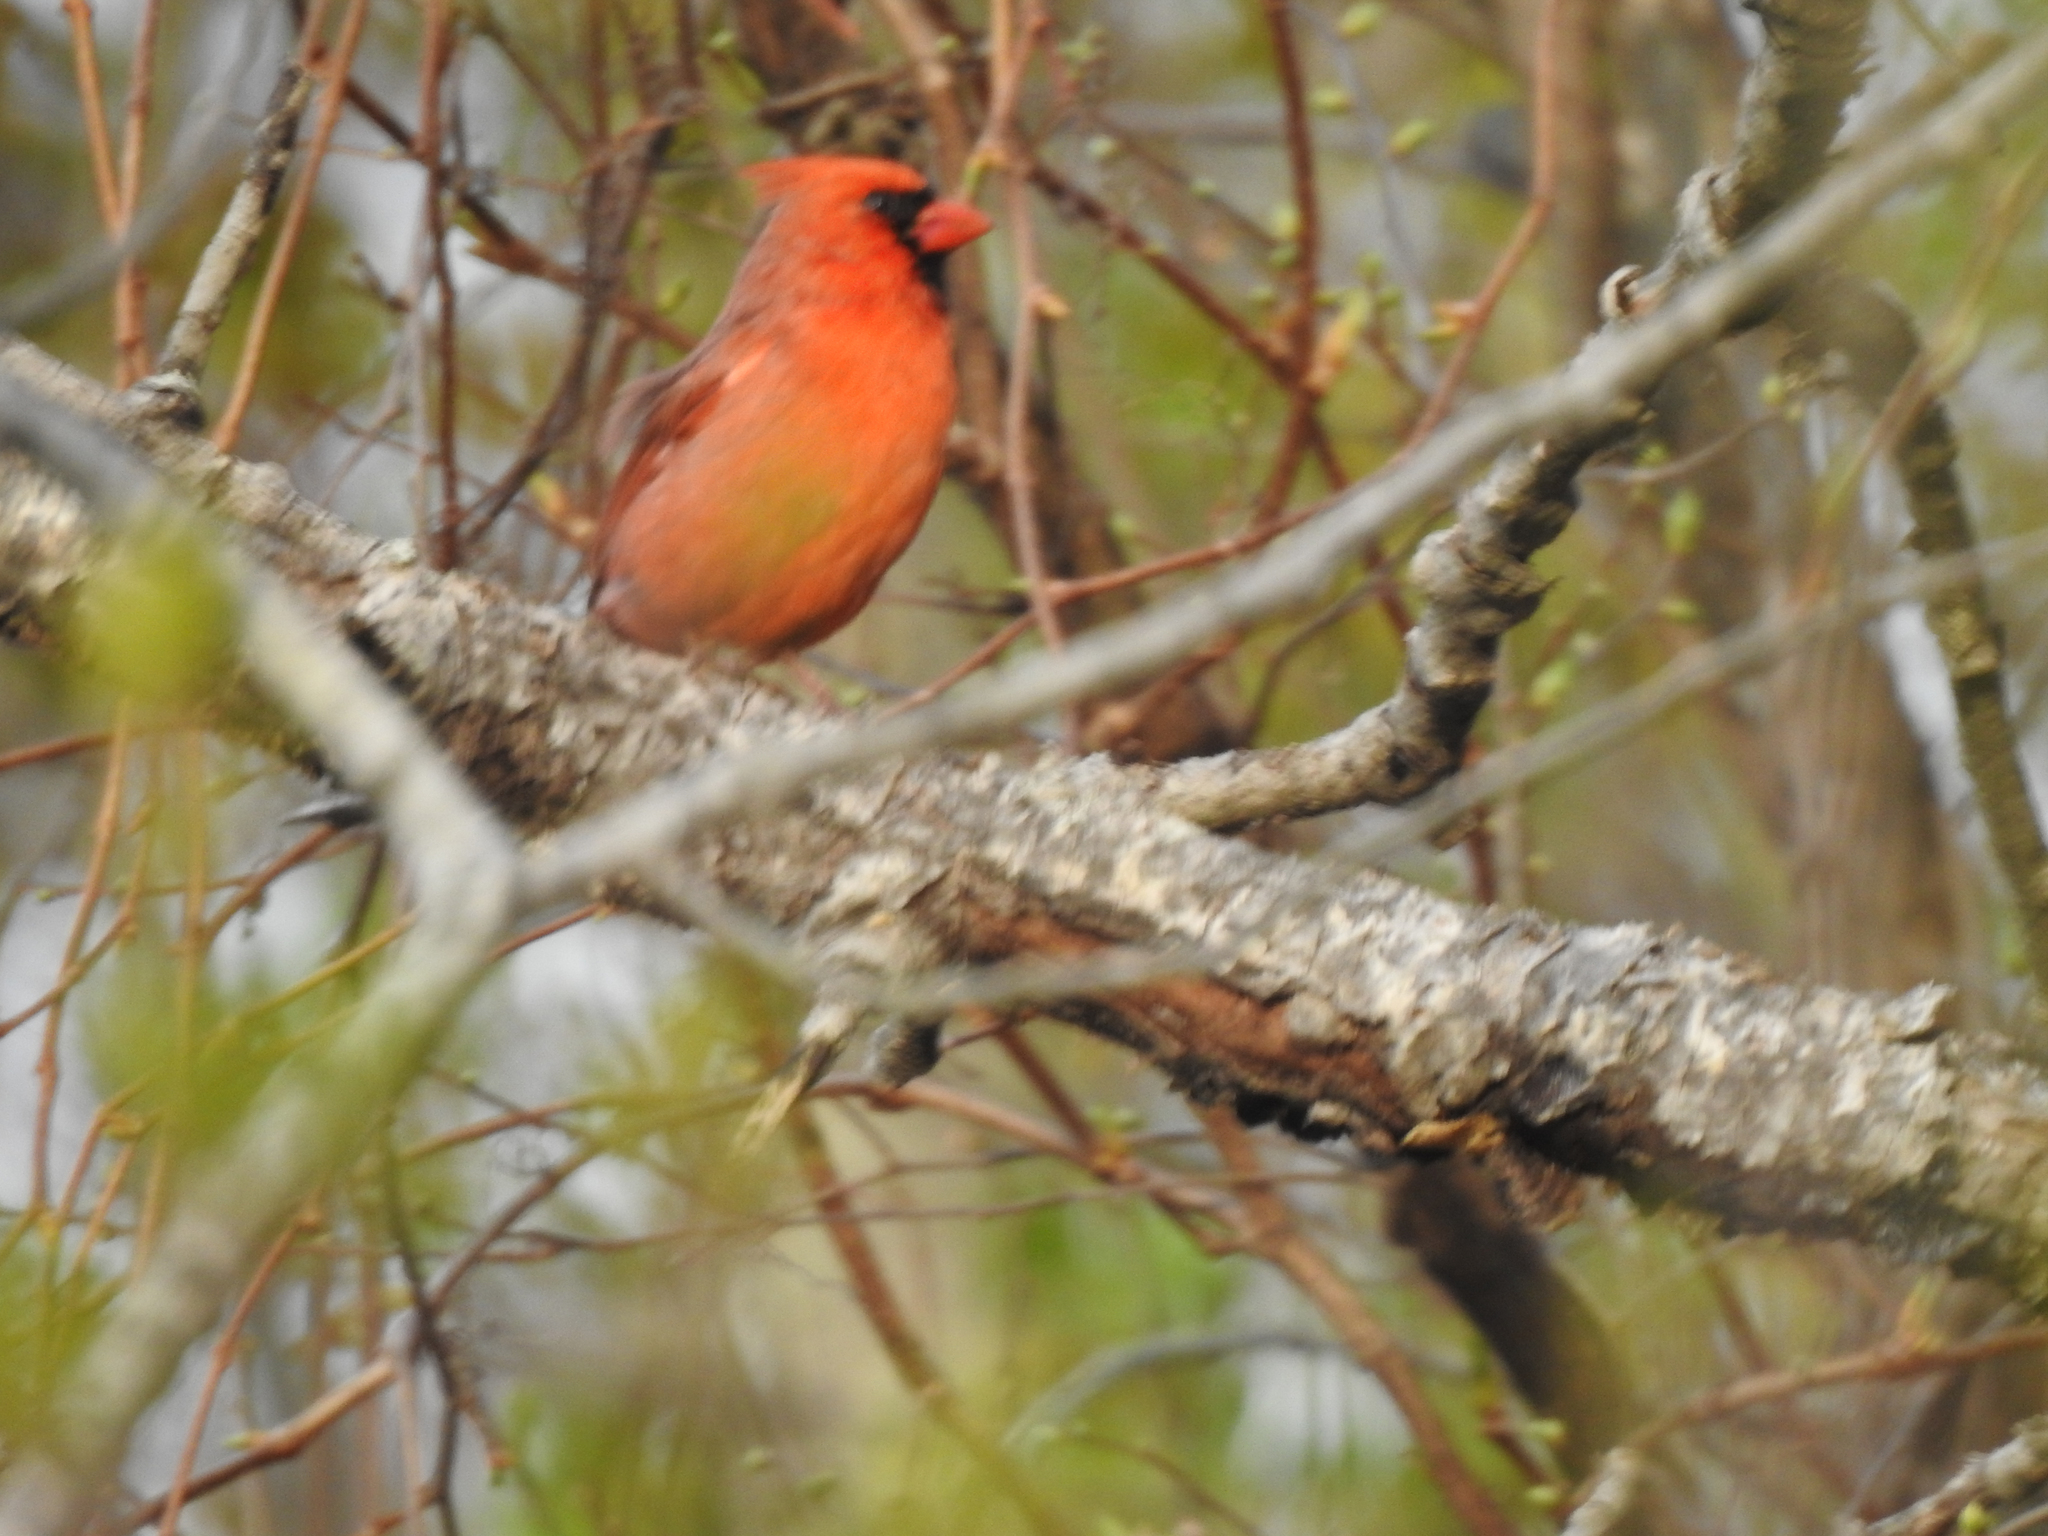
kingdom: Animalia
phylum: Chordata
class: Aves
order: Passeriformes
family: Cardinalidae
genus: Cardinalis
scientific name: Cardinalis cardinalis
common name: Northern cardinal
